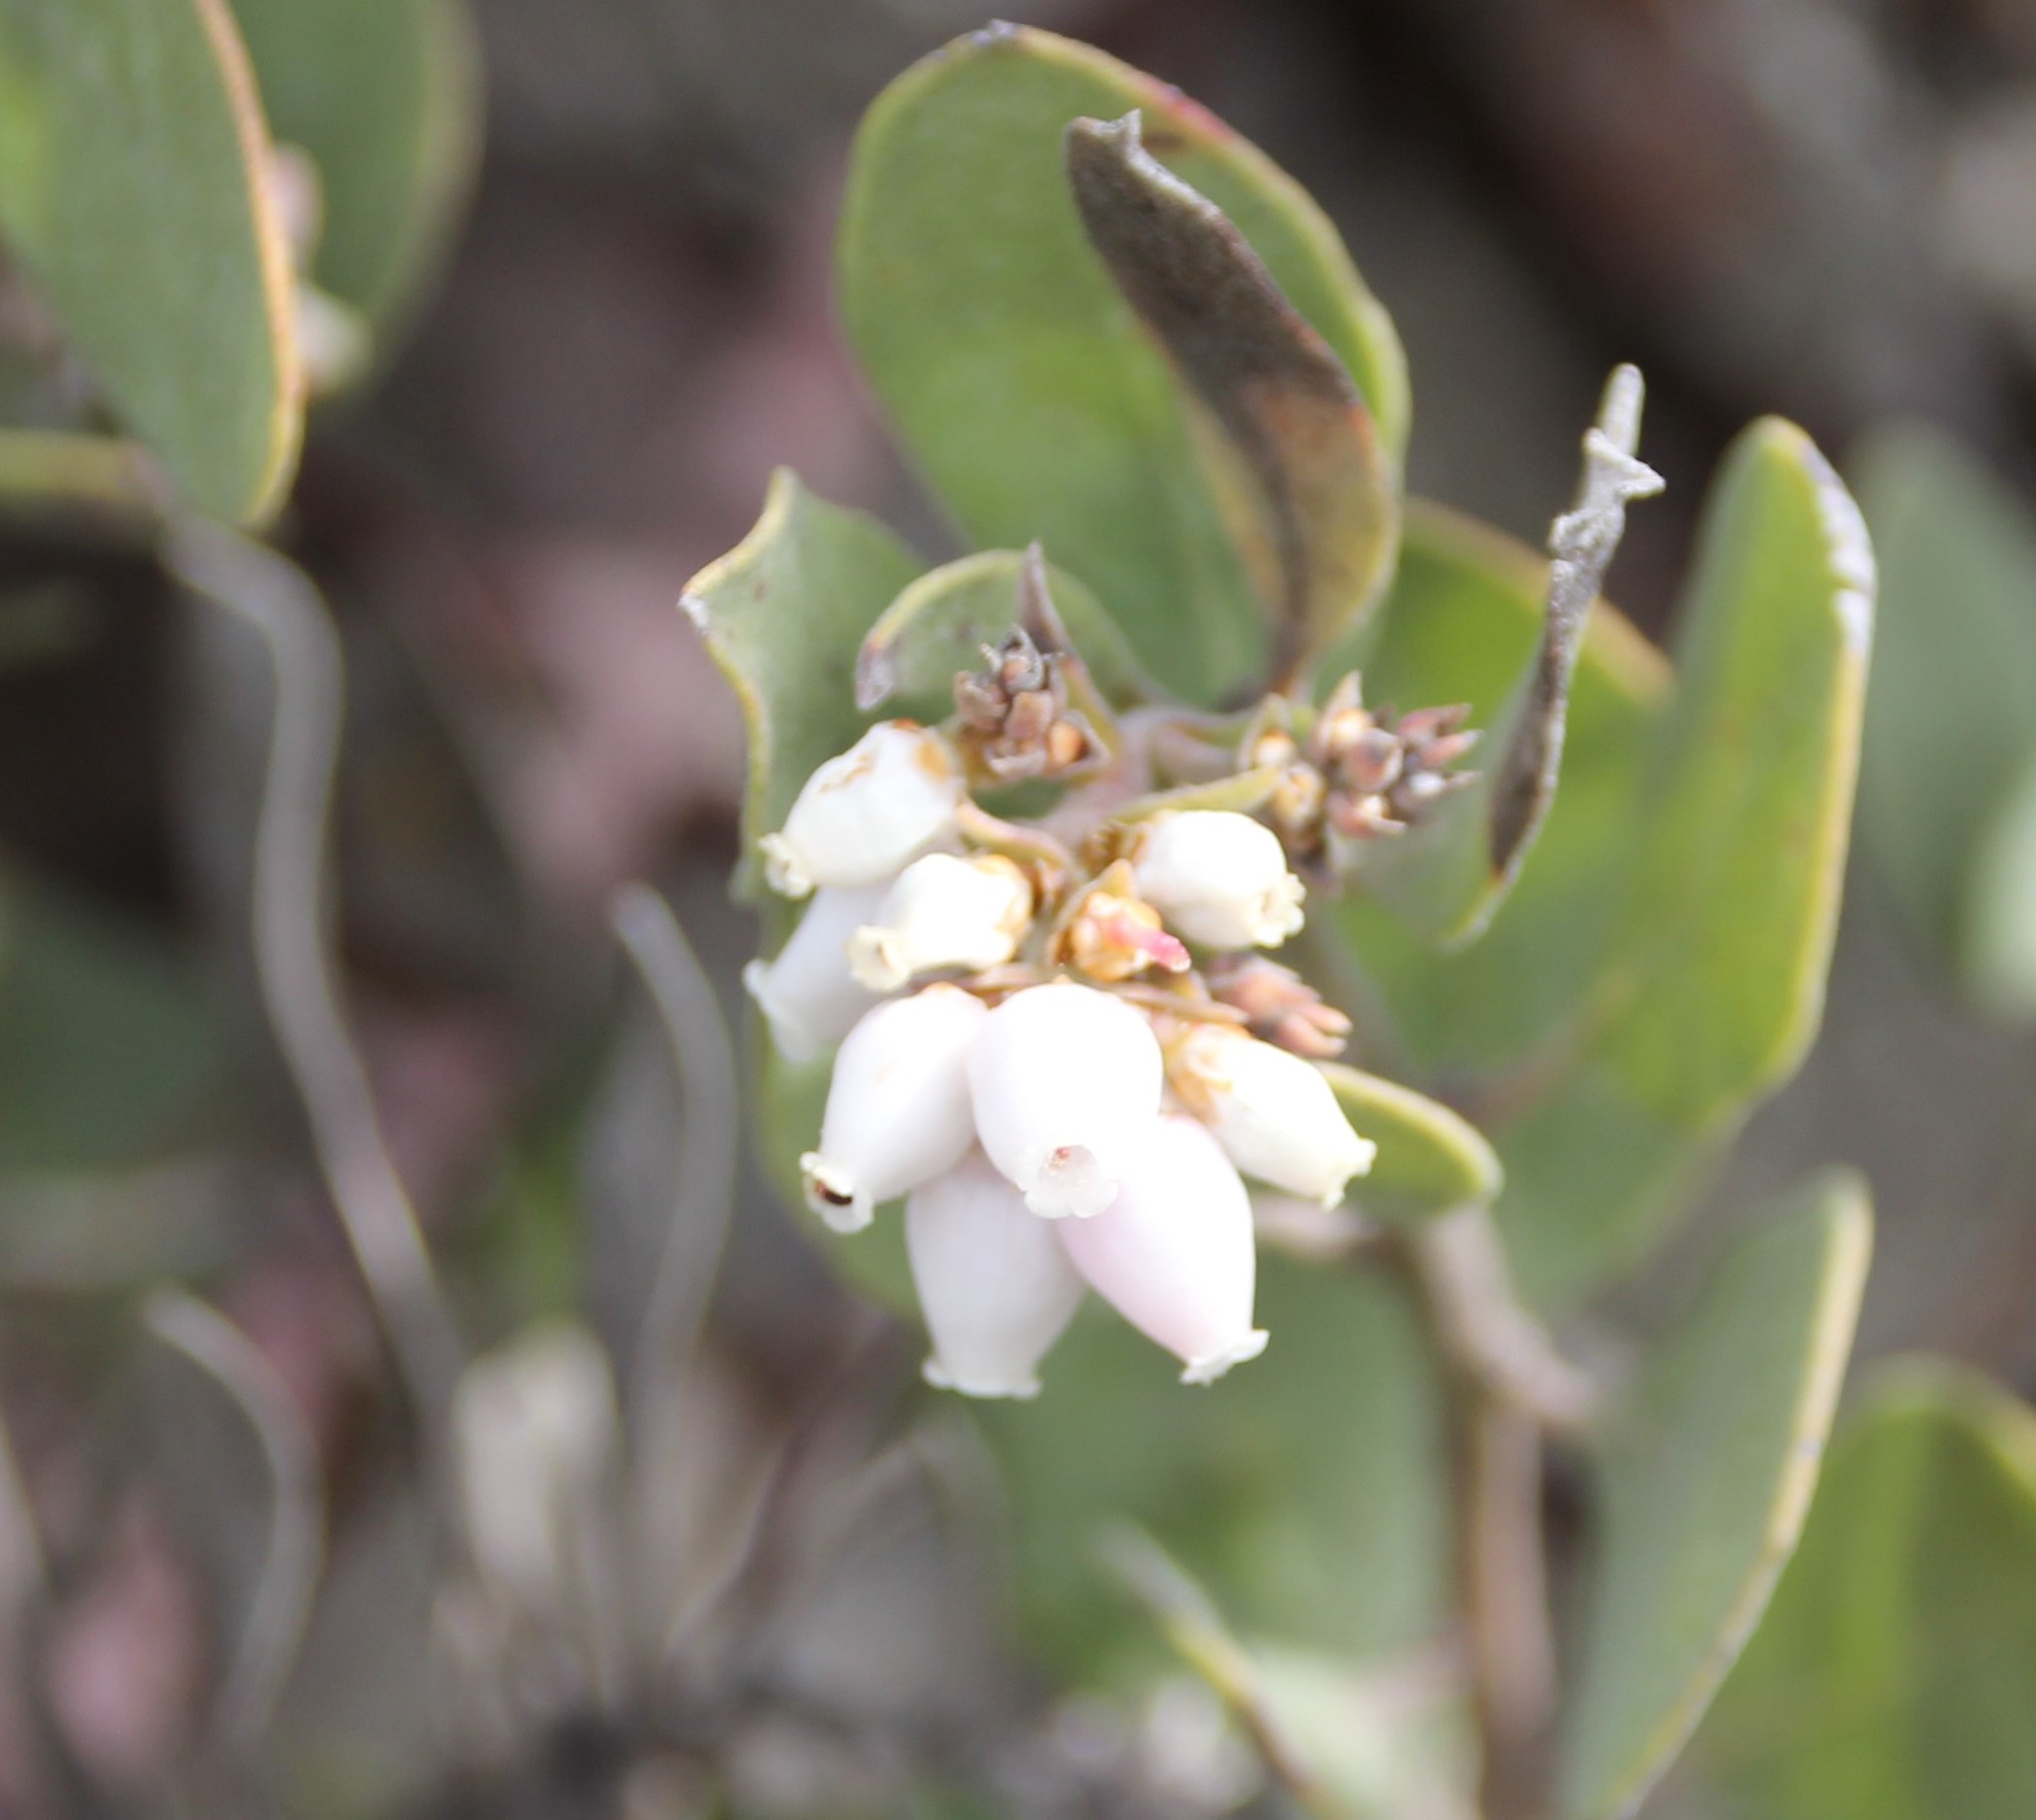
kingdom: Plantae
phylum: Tracheophyta
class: Magnoliopsida
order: Ericales
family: Ericaceae
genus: Arctostaphylos
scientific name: Arctostaphylos glandulosa
